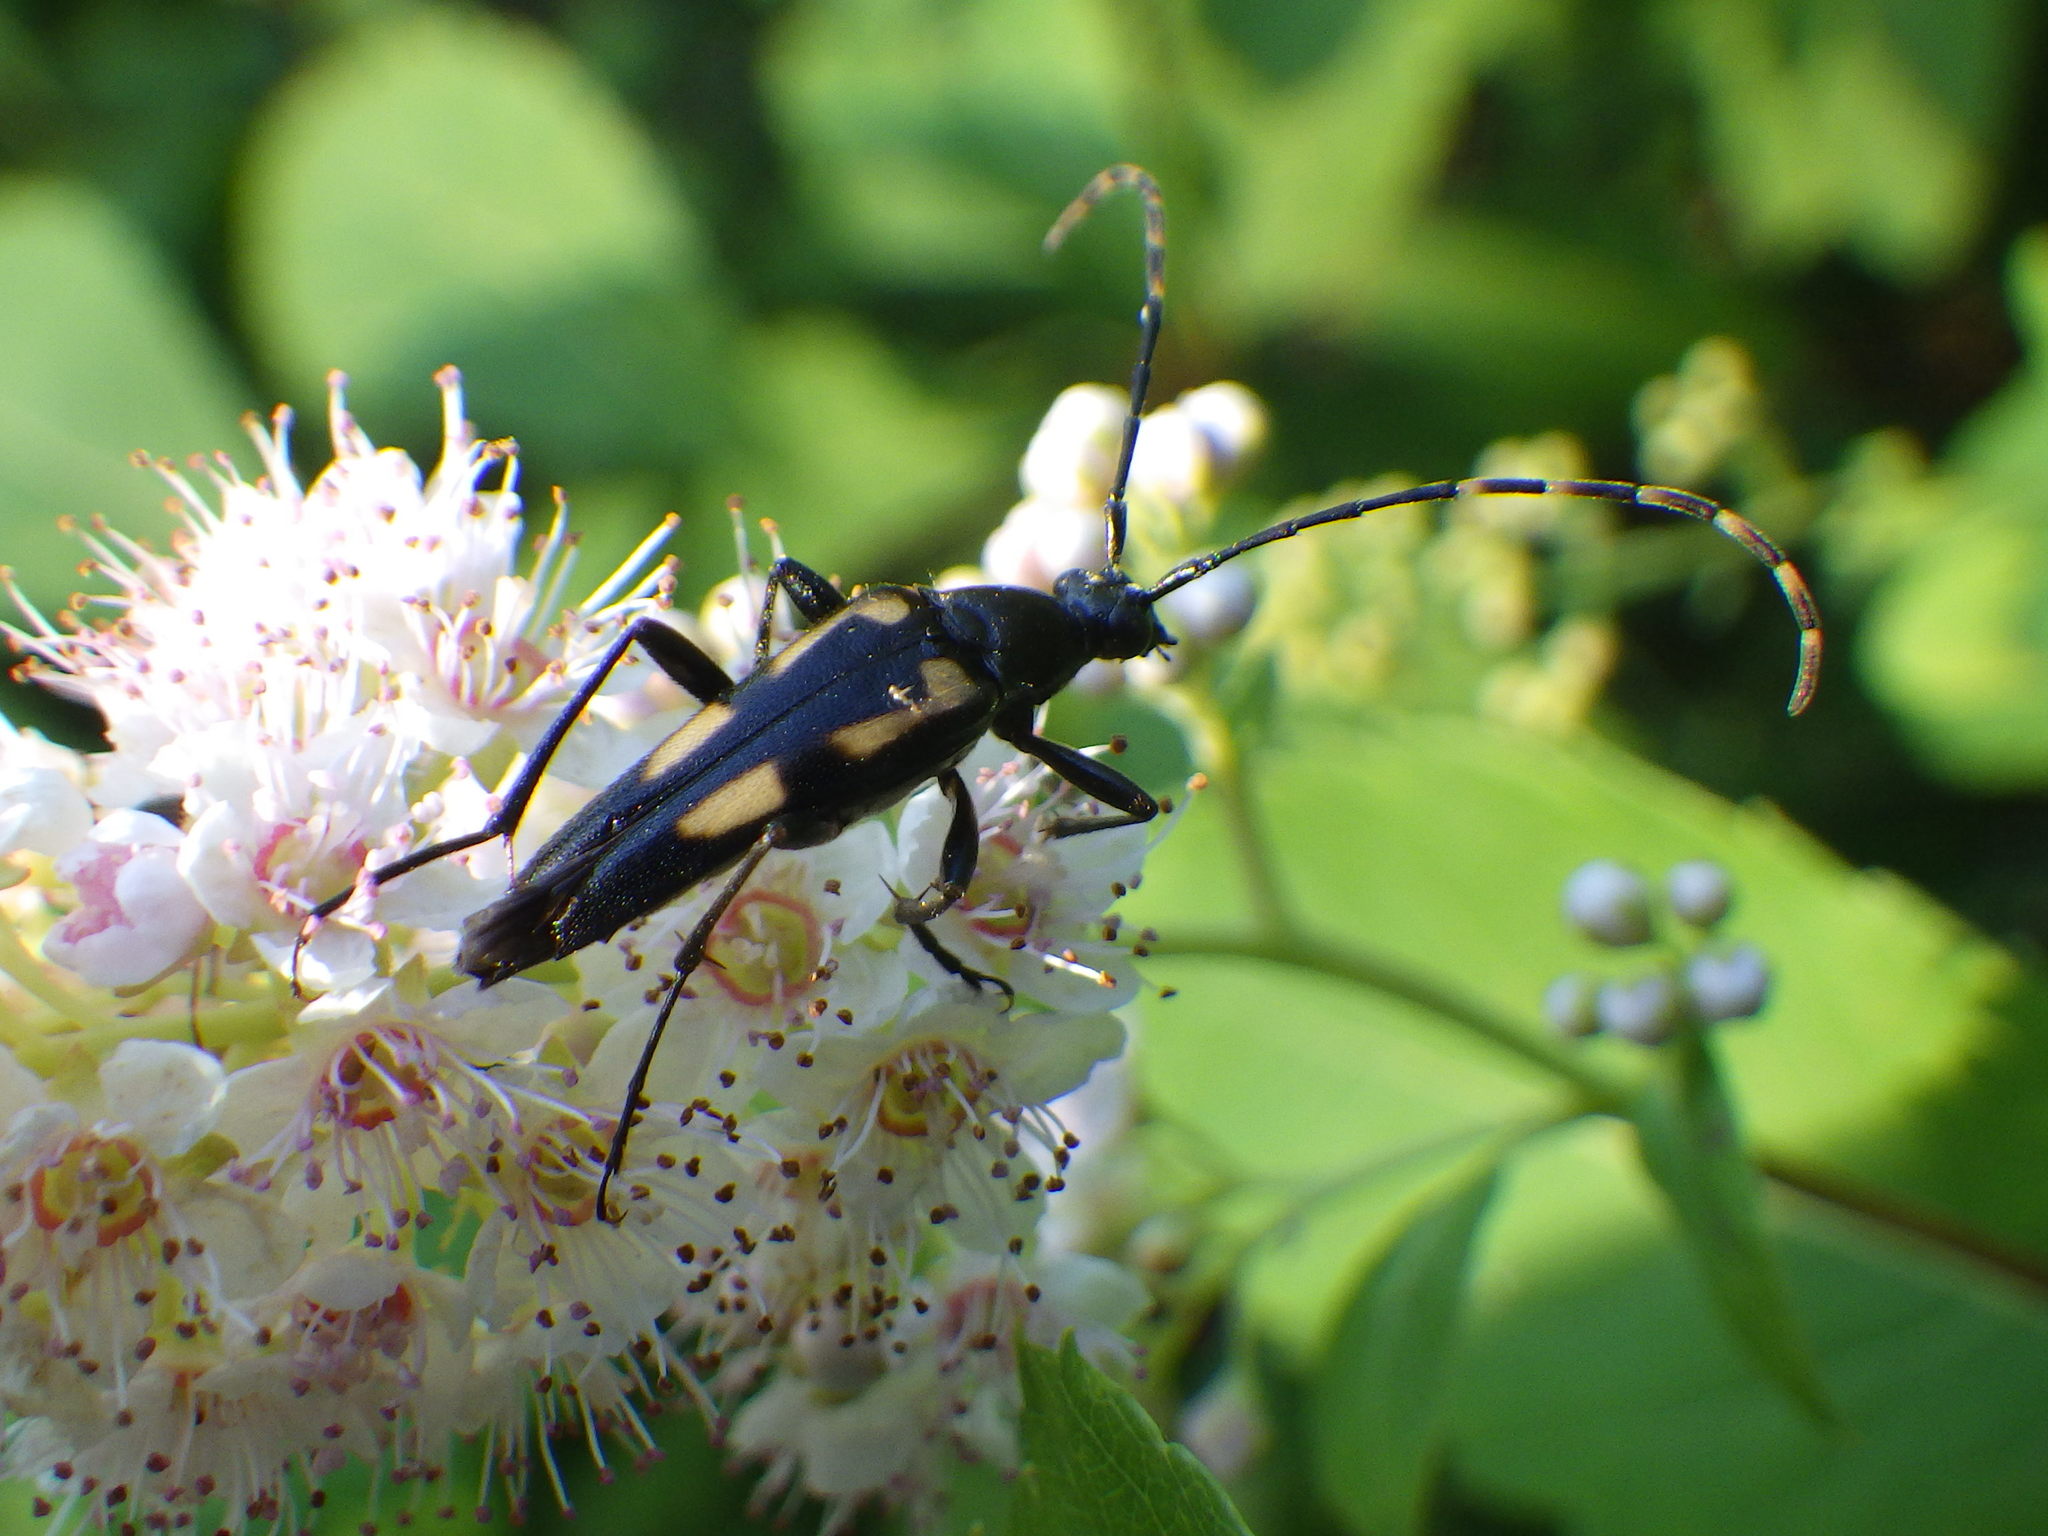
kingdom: Animalia
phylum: Arthropoda
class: Insecta
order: Coleoptera
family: Cerambycidae
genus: Etorofus
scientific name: Etorofus
